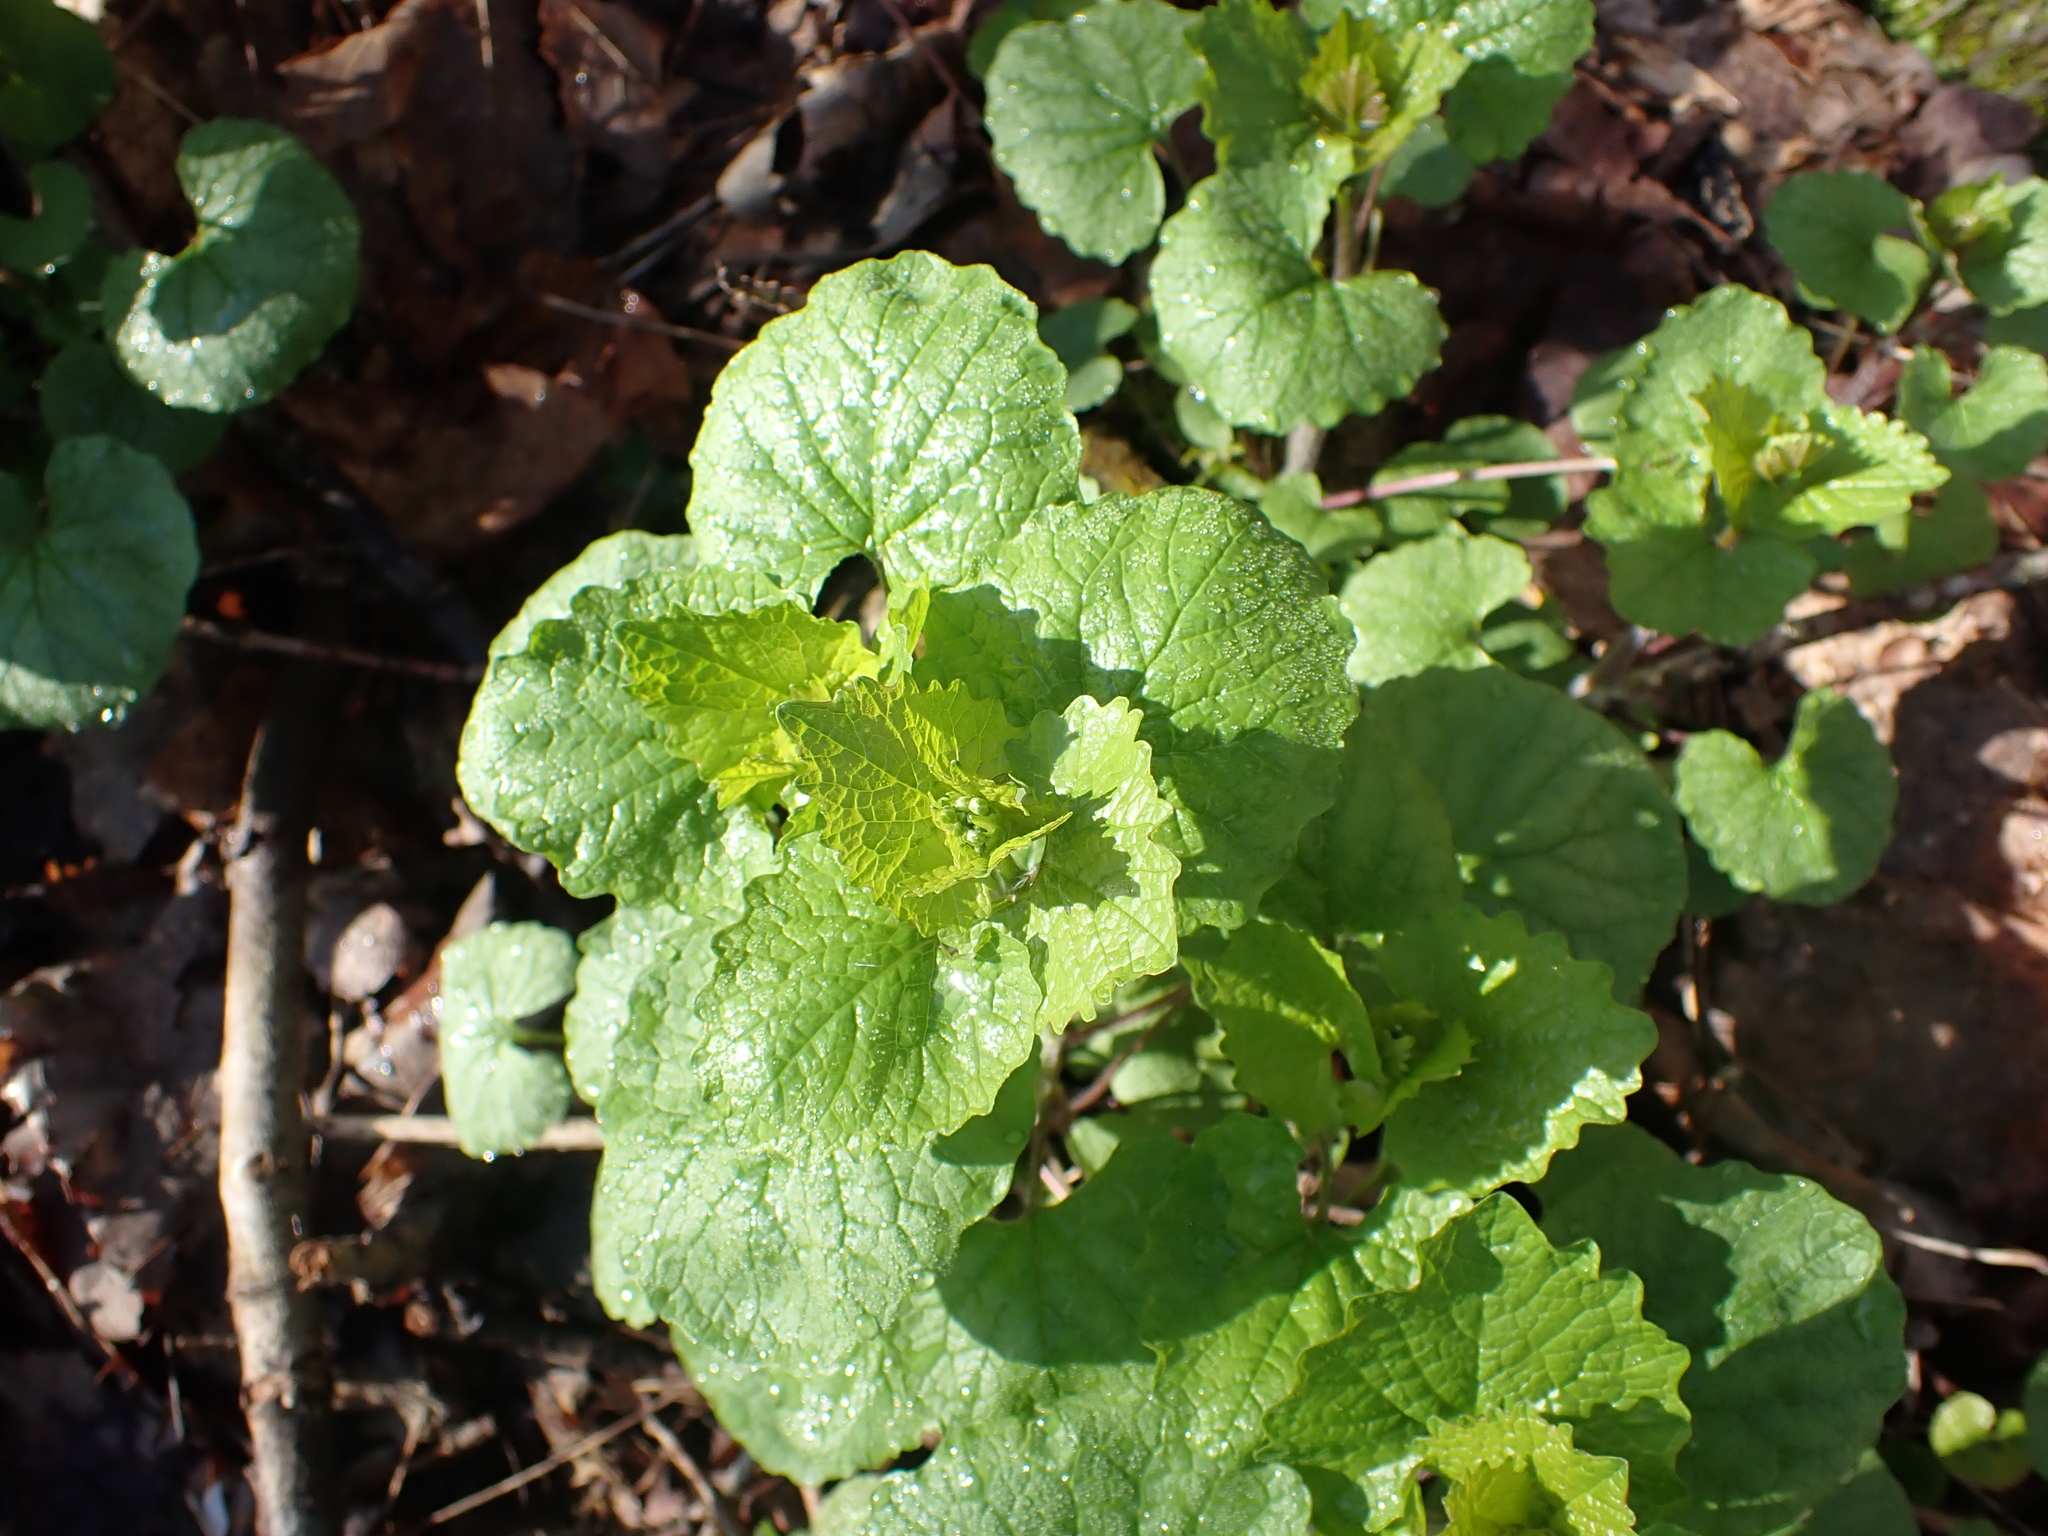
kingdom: Plantae
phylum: Tracheophyta
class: Magnoliopsida
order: Brassicales
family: Brassicaceae
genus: Alliaria
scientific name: Alliaria petiolata
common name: Garlic mustard
